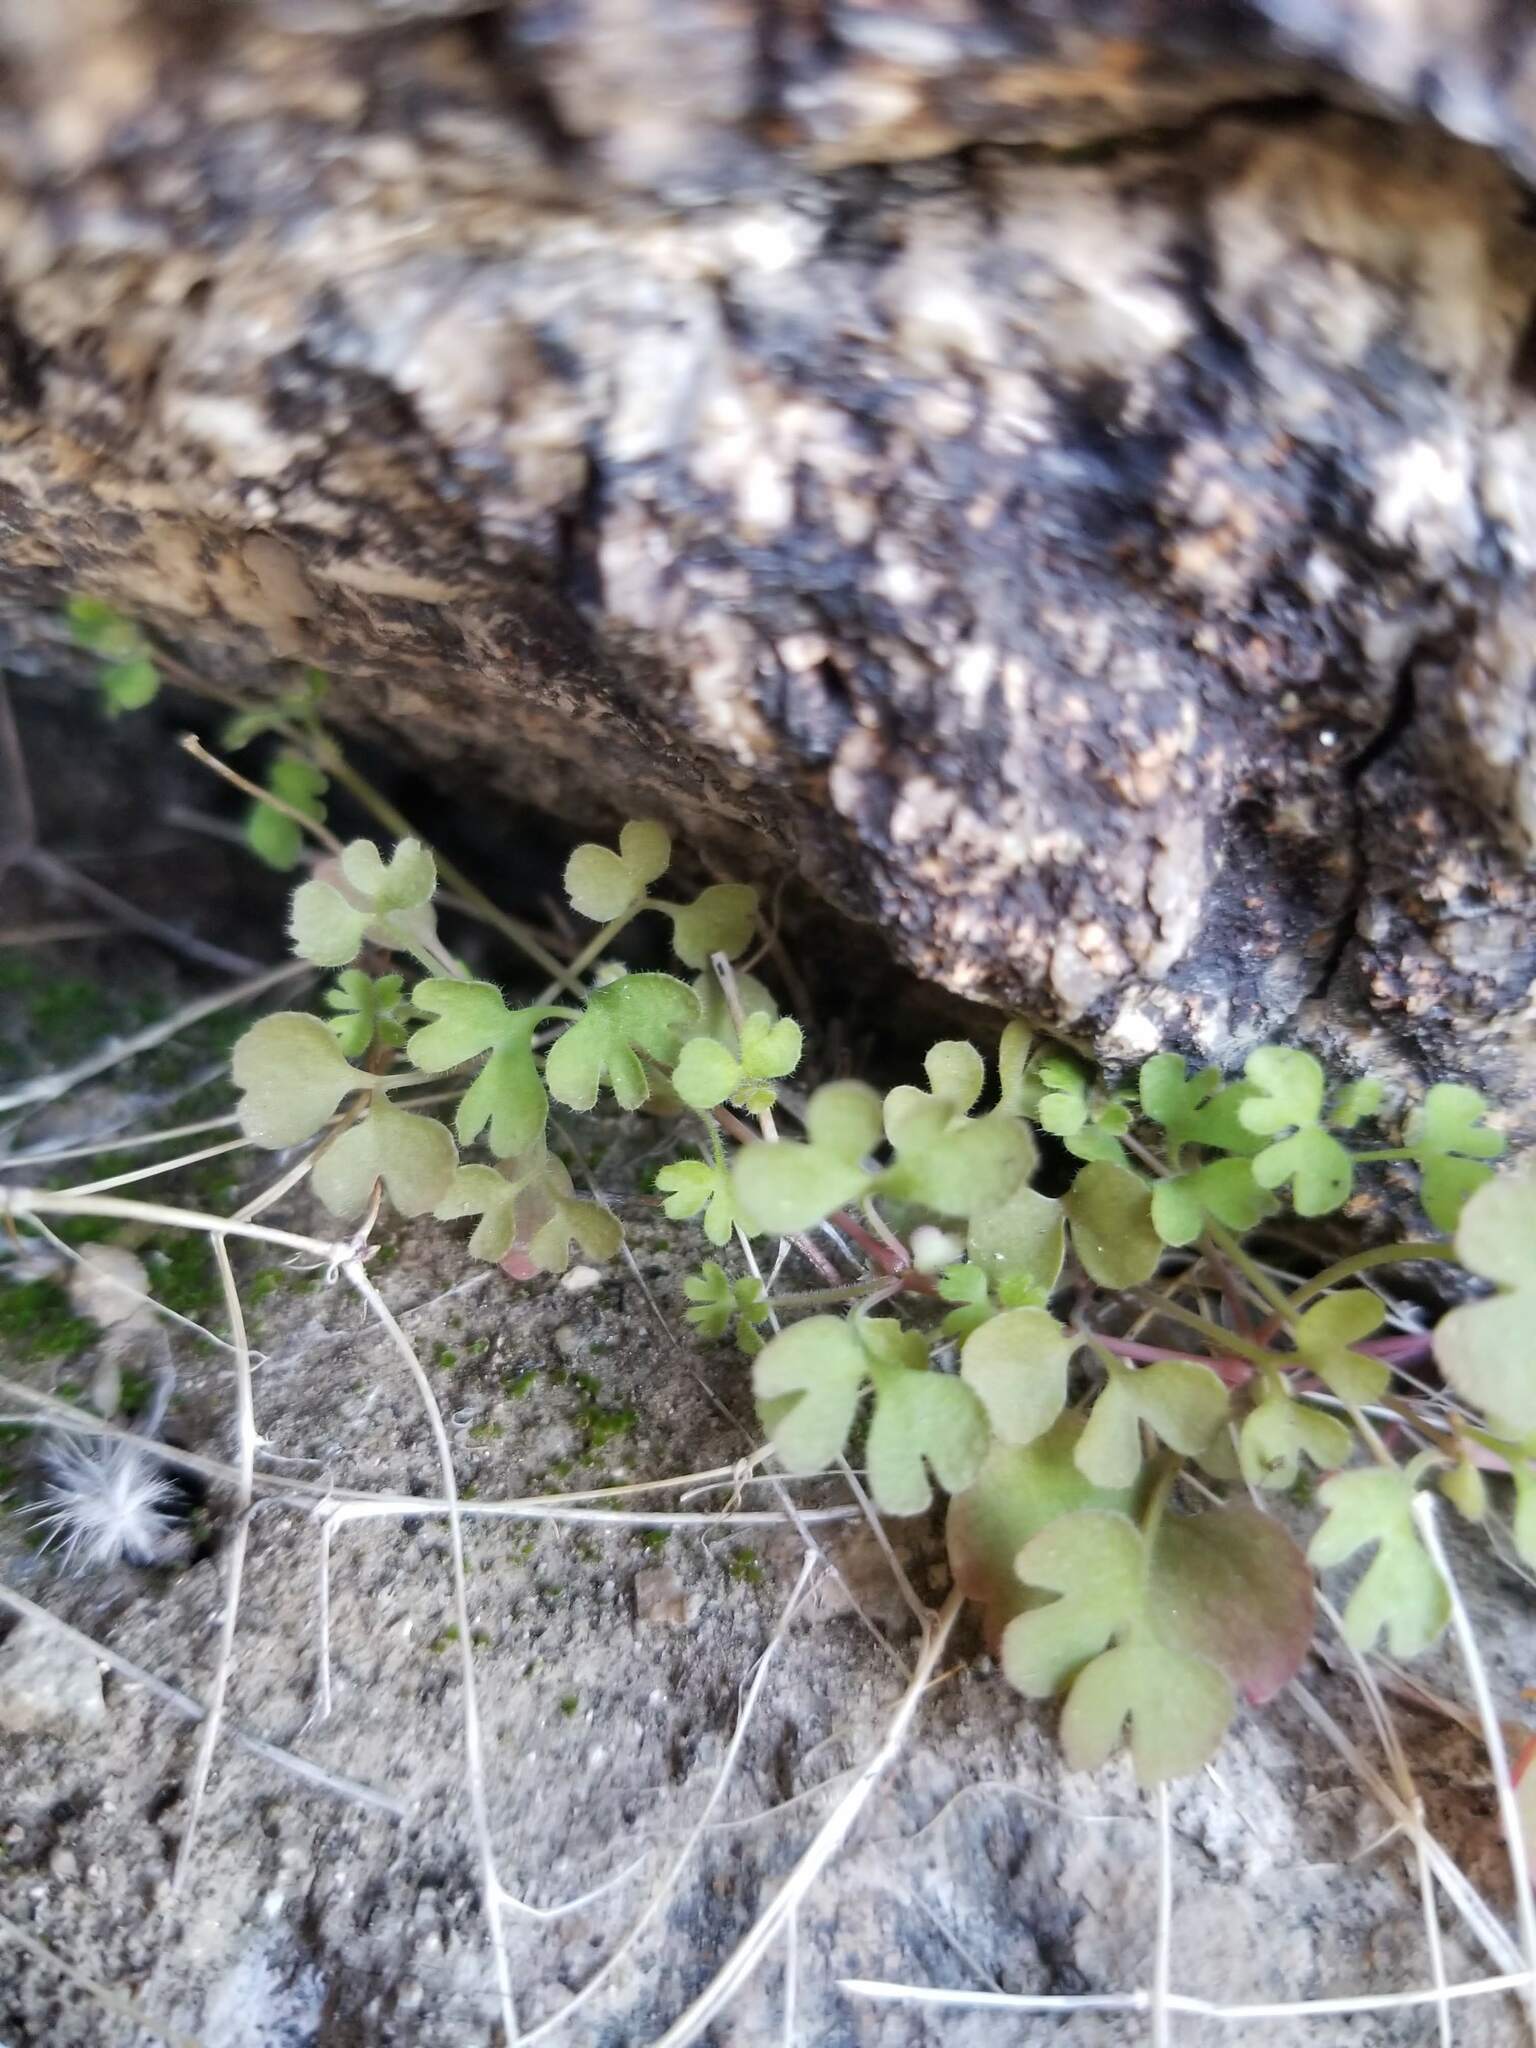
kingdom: Plantae
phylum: Tracheophyta
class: Magnoliopsida
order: Caryophyllales
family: Polygonaceae
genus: Pterostegia
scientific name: Pterostegia drymarioides
